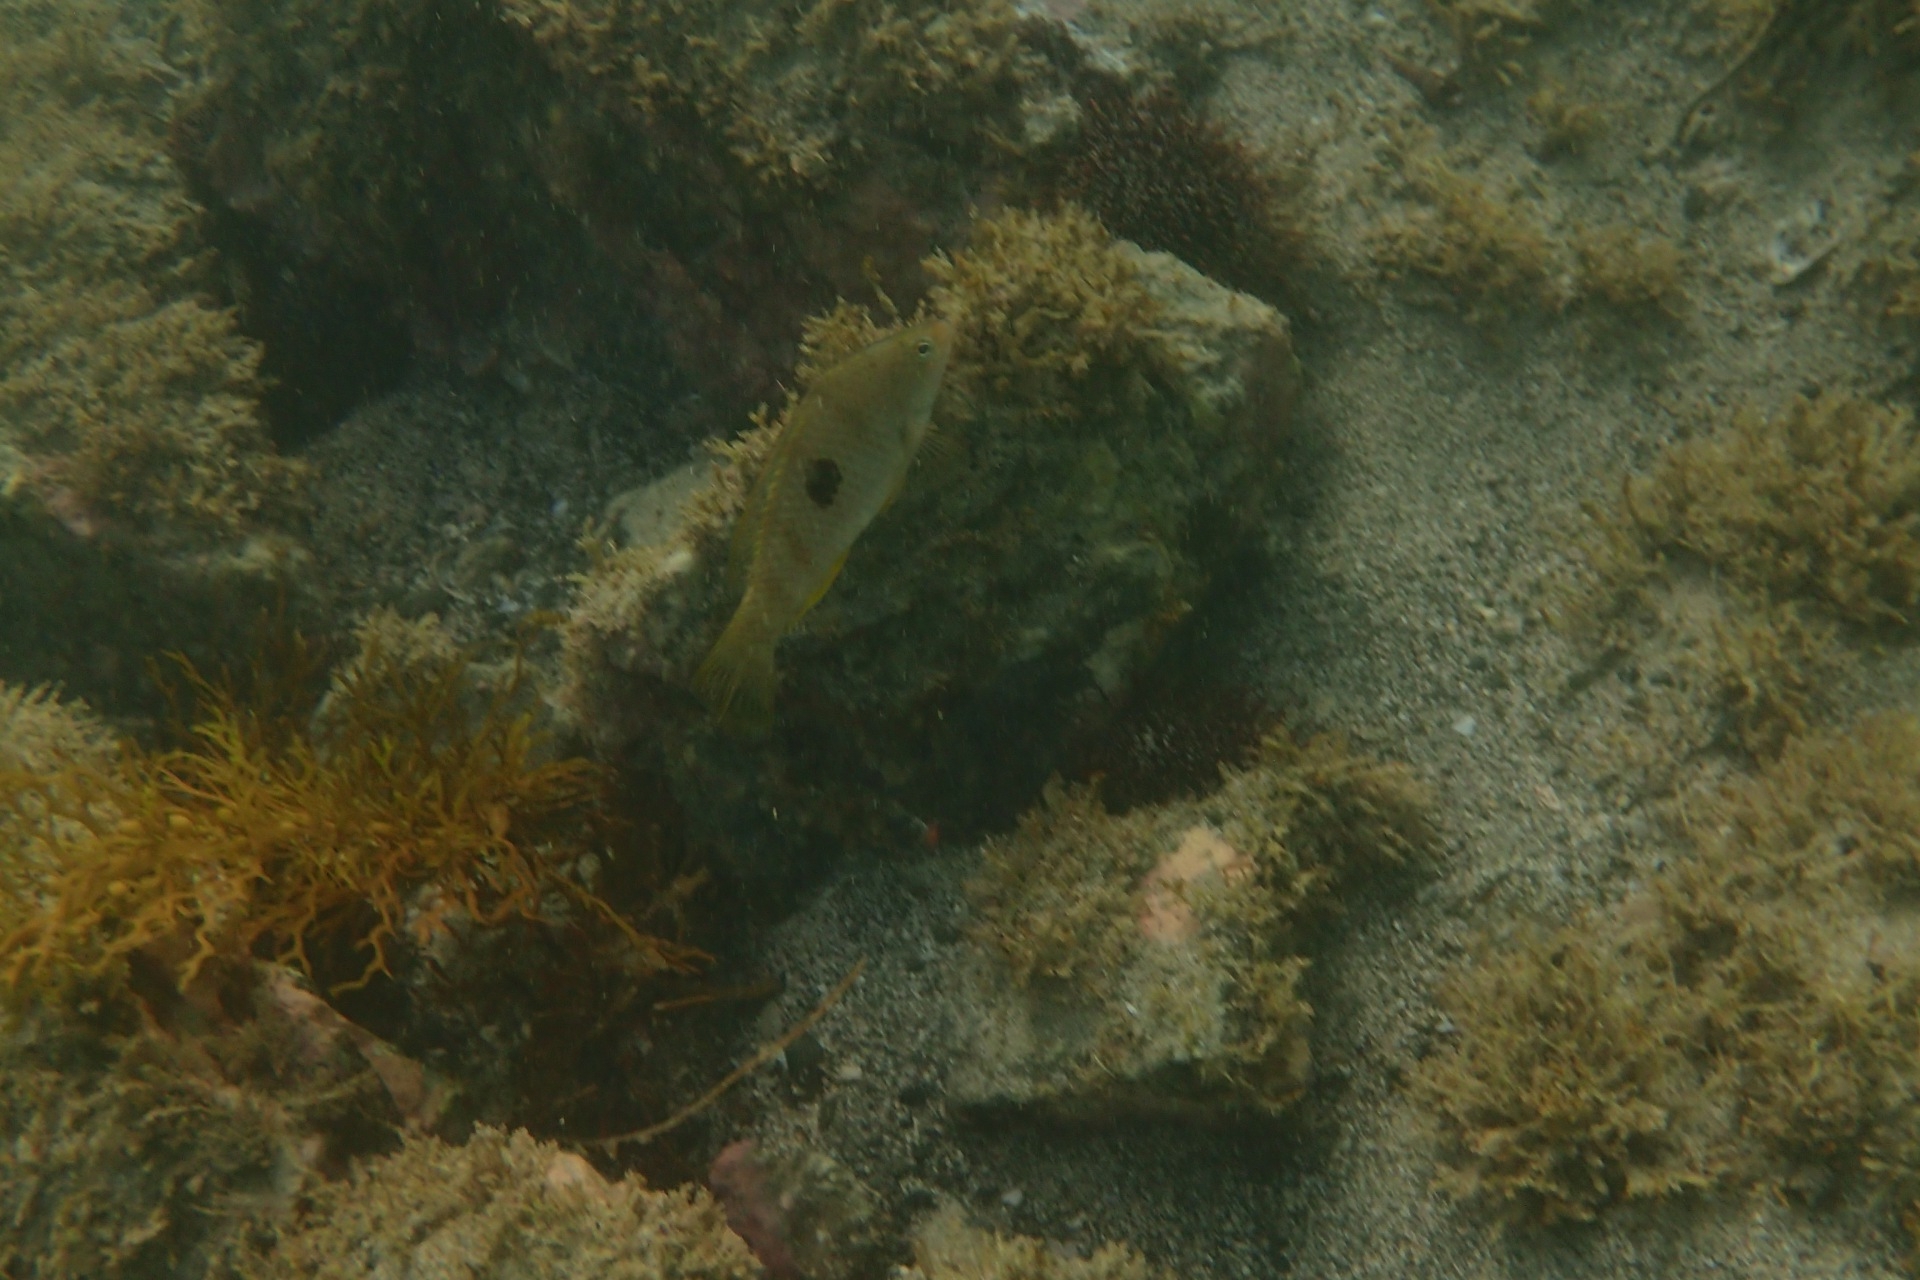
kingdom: Animalia
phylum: Chordata
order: Perciformes
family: Labridae
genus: Notolabrus
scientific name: Notolabrus celidotus
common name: Spotty
